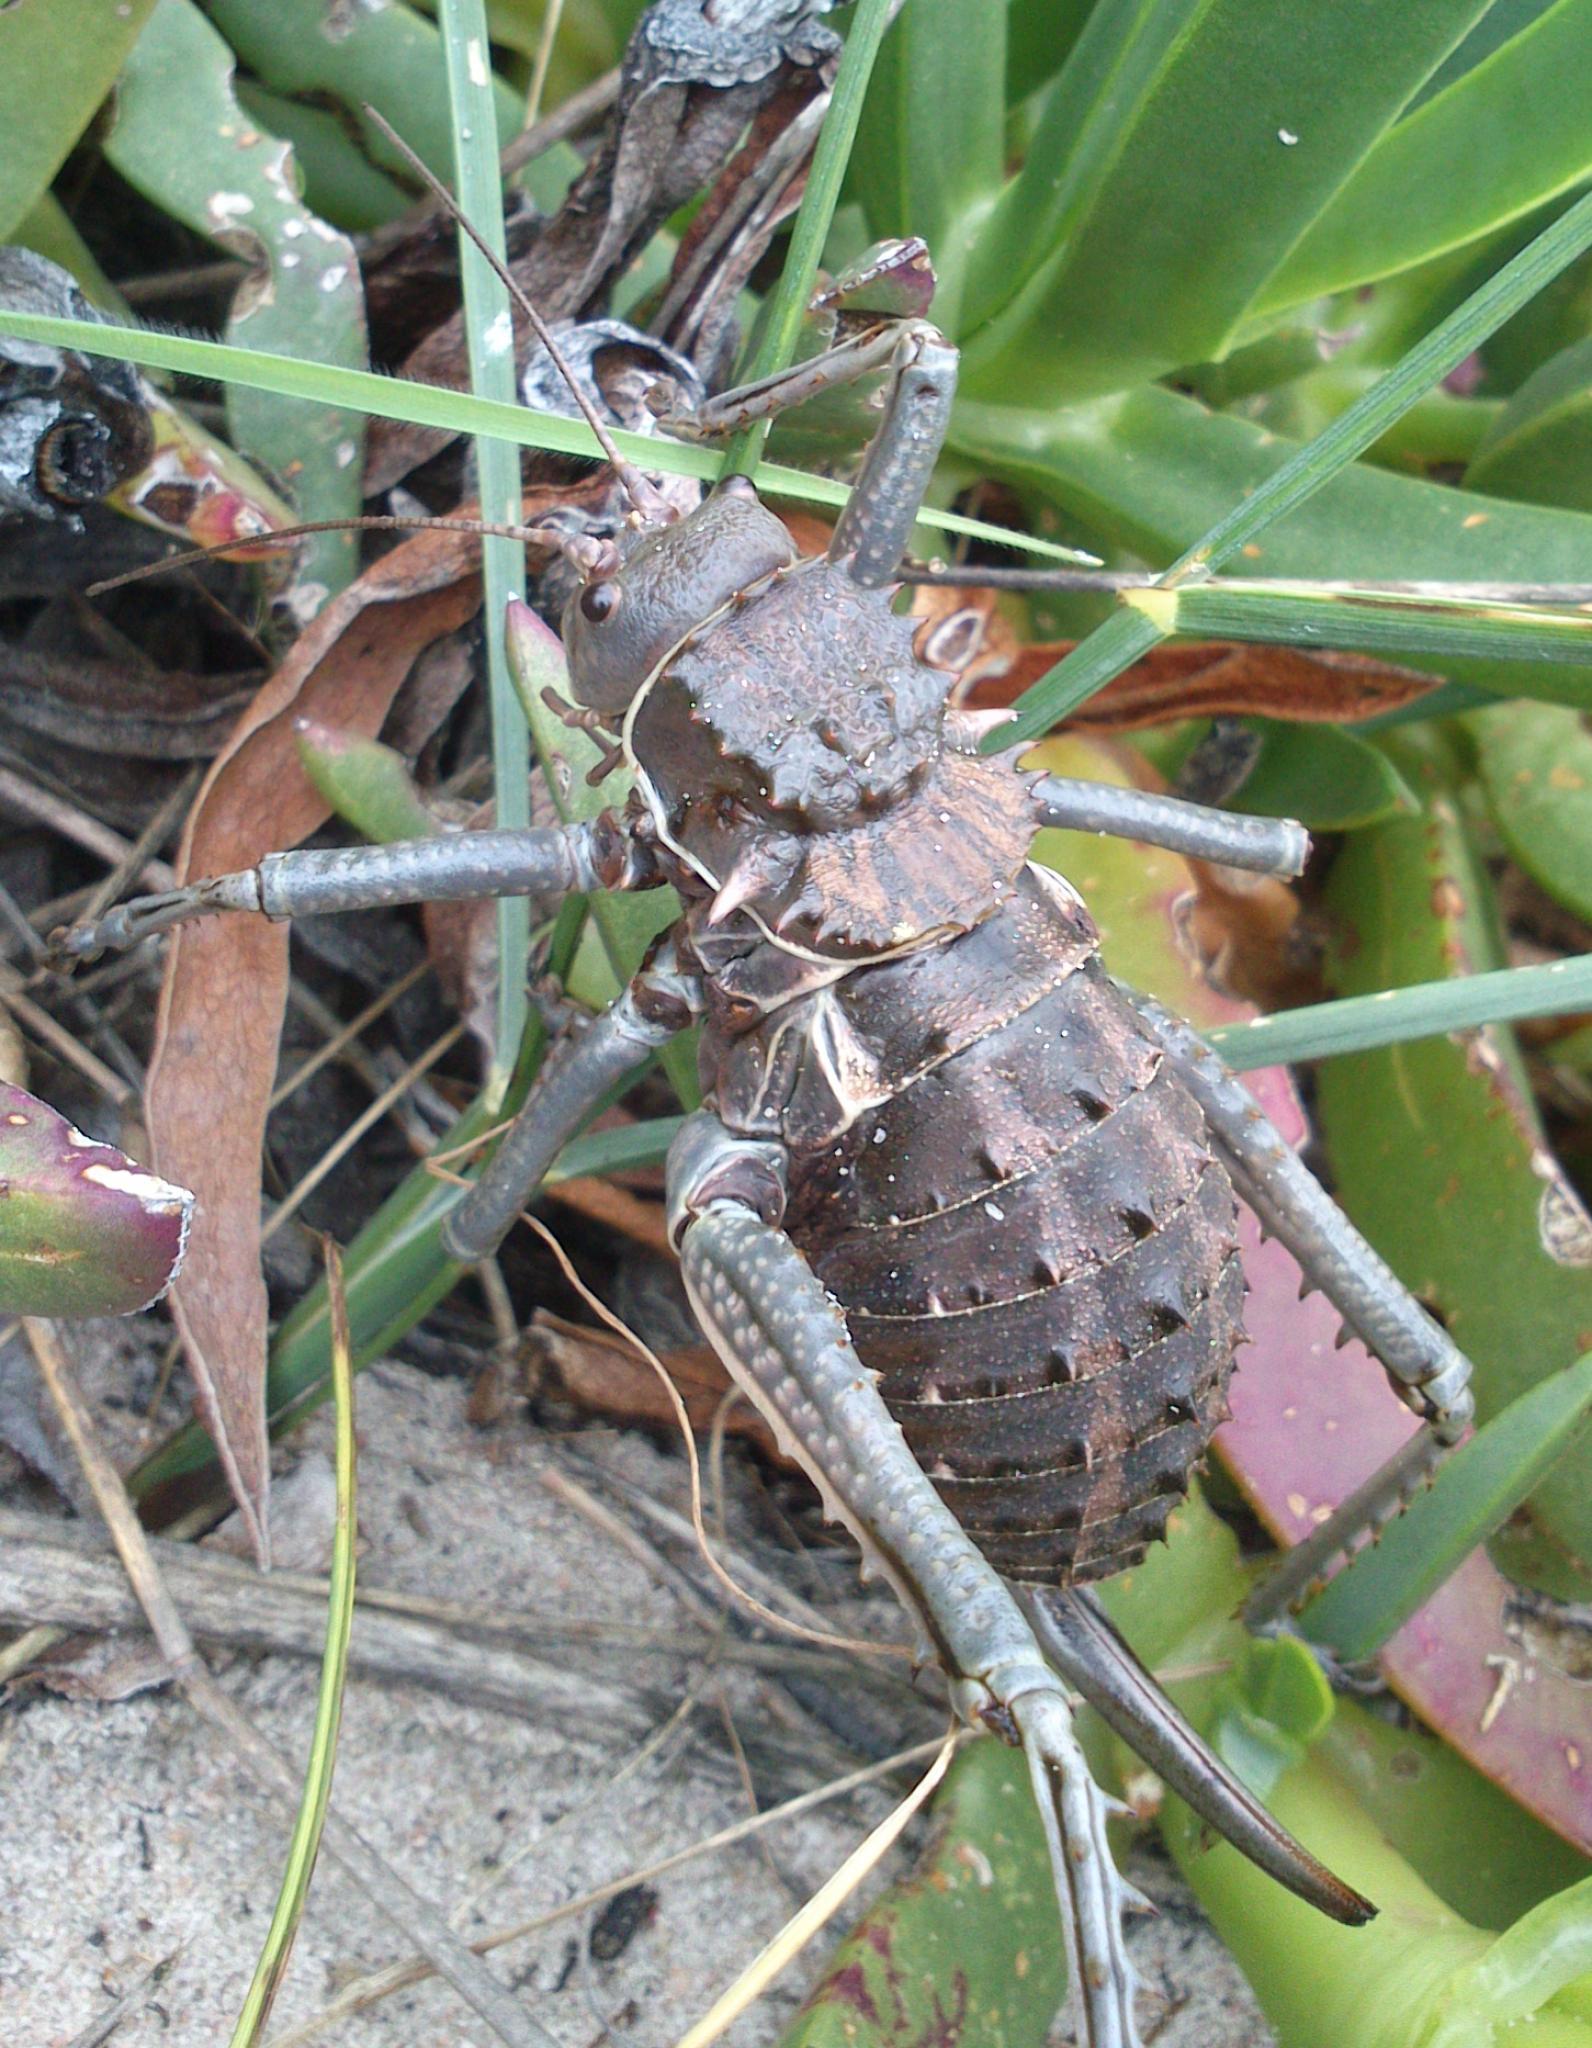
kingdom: Animalia
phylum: Arthropoda
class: Insecta
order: Orthoptera
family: Tettigoniidae
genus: Hetrodes
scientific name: Hetrodes pupus
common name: Koringkriek
